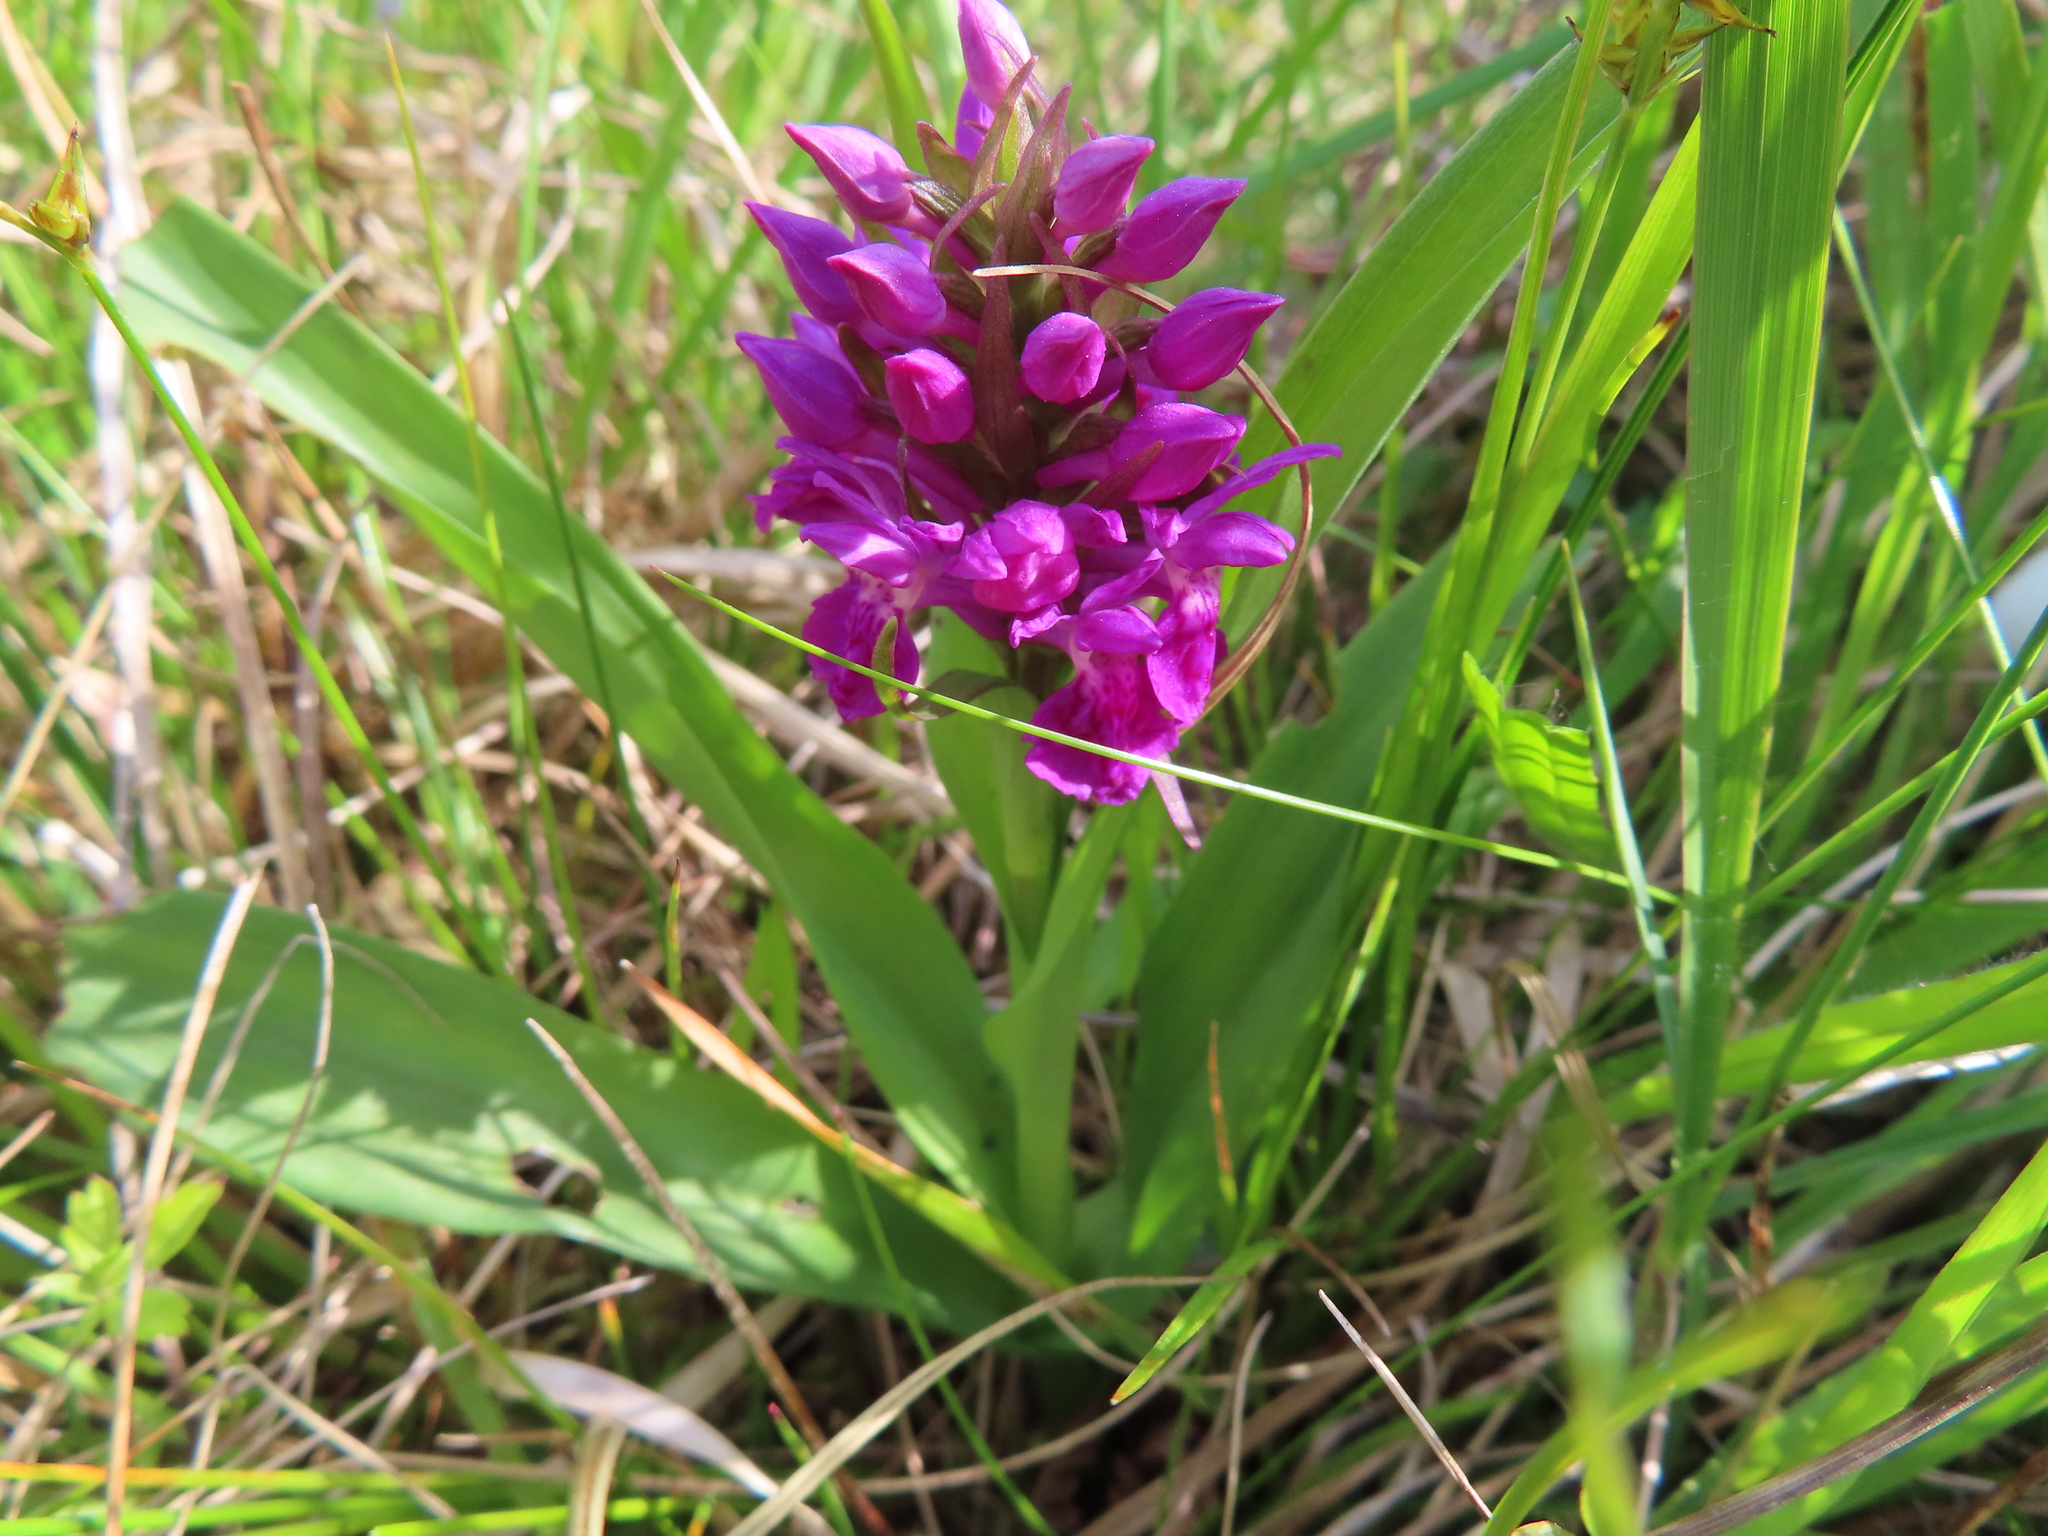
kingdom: Plantae
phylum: Tracheophyta
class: Liliopsida
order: Asparagales
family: Orchidaceae
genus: Dactylorhiza
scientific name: Dactylorhiza majalis
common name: Marsh orchid
